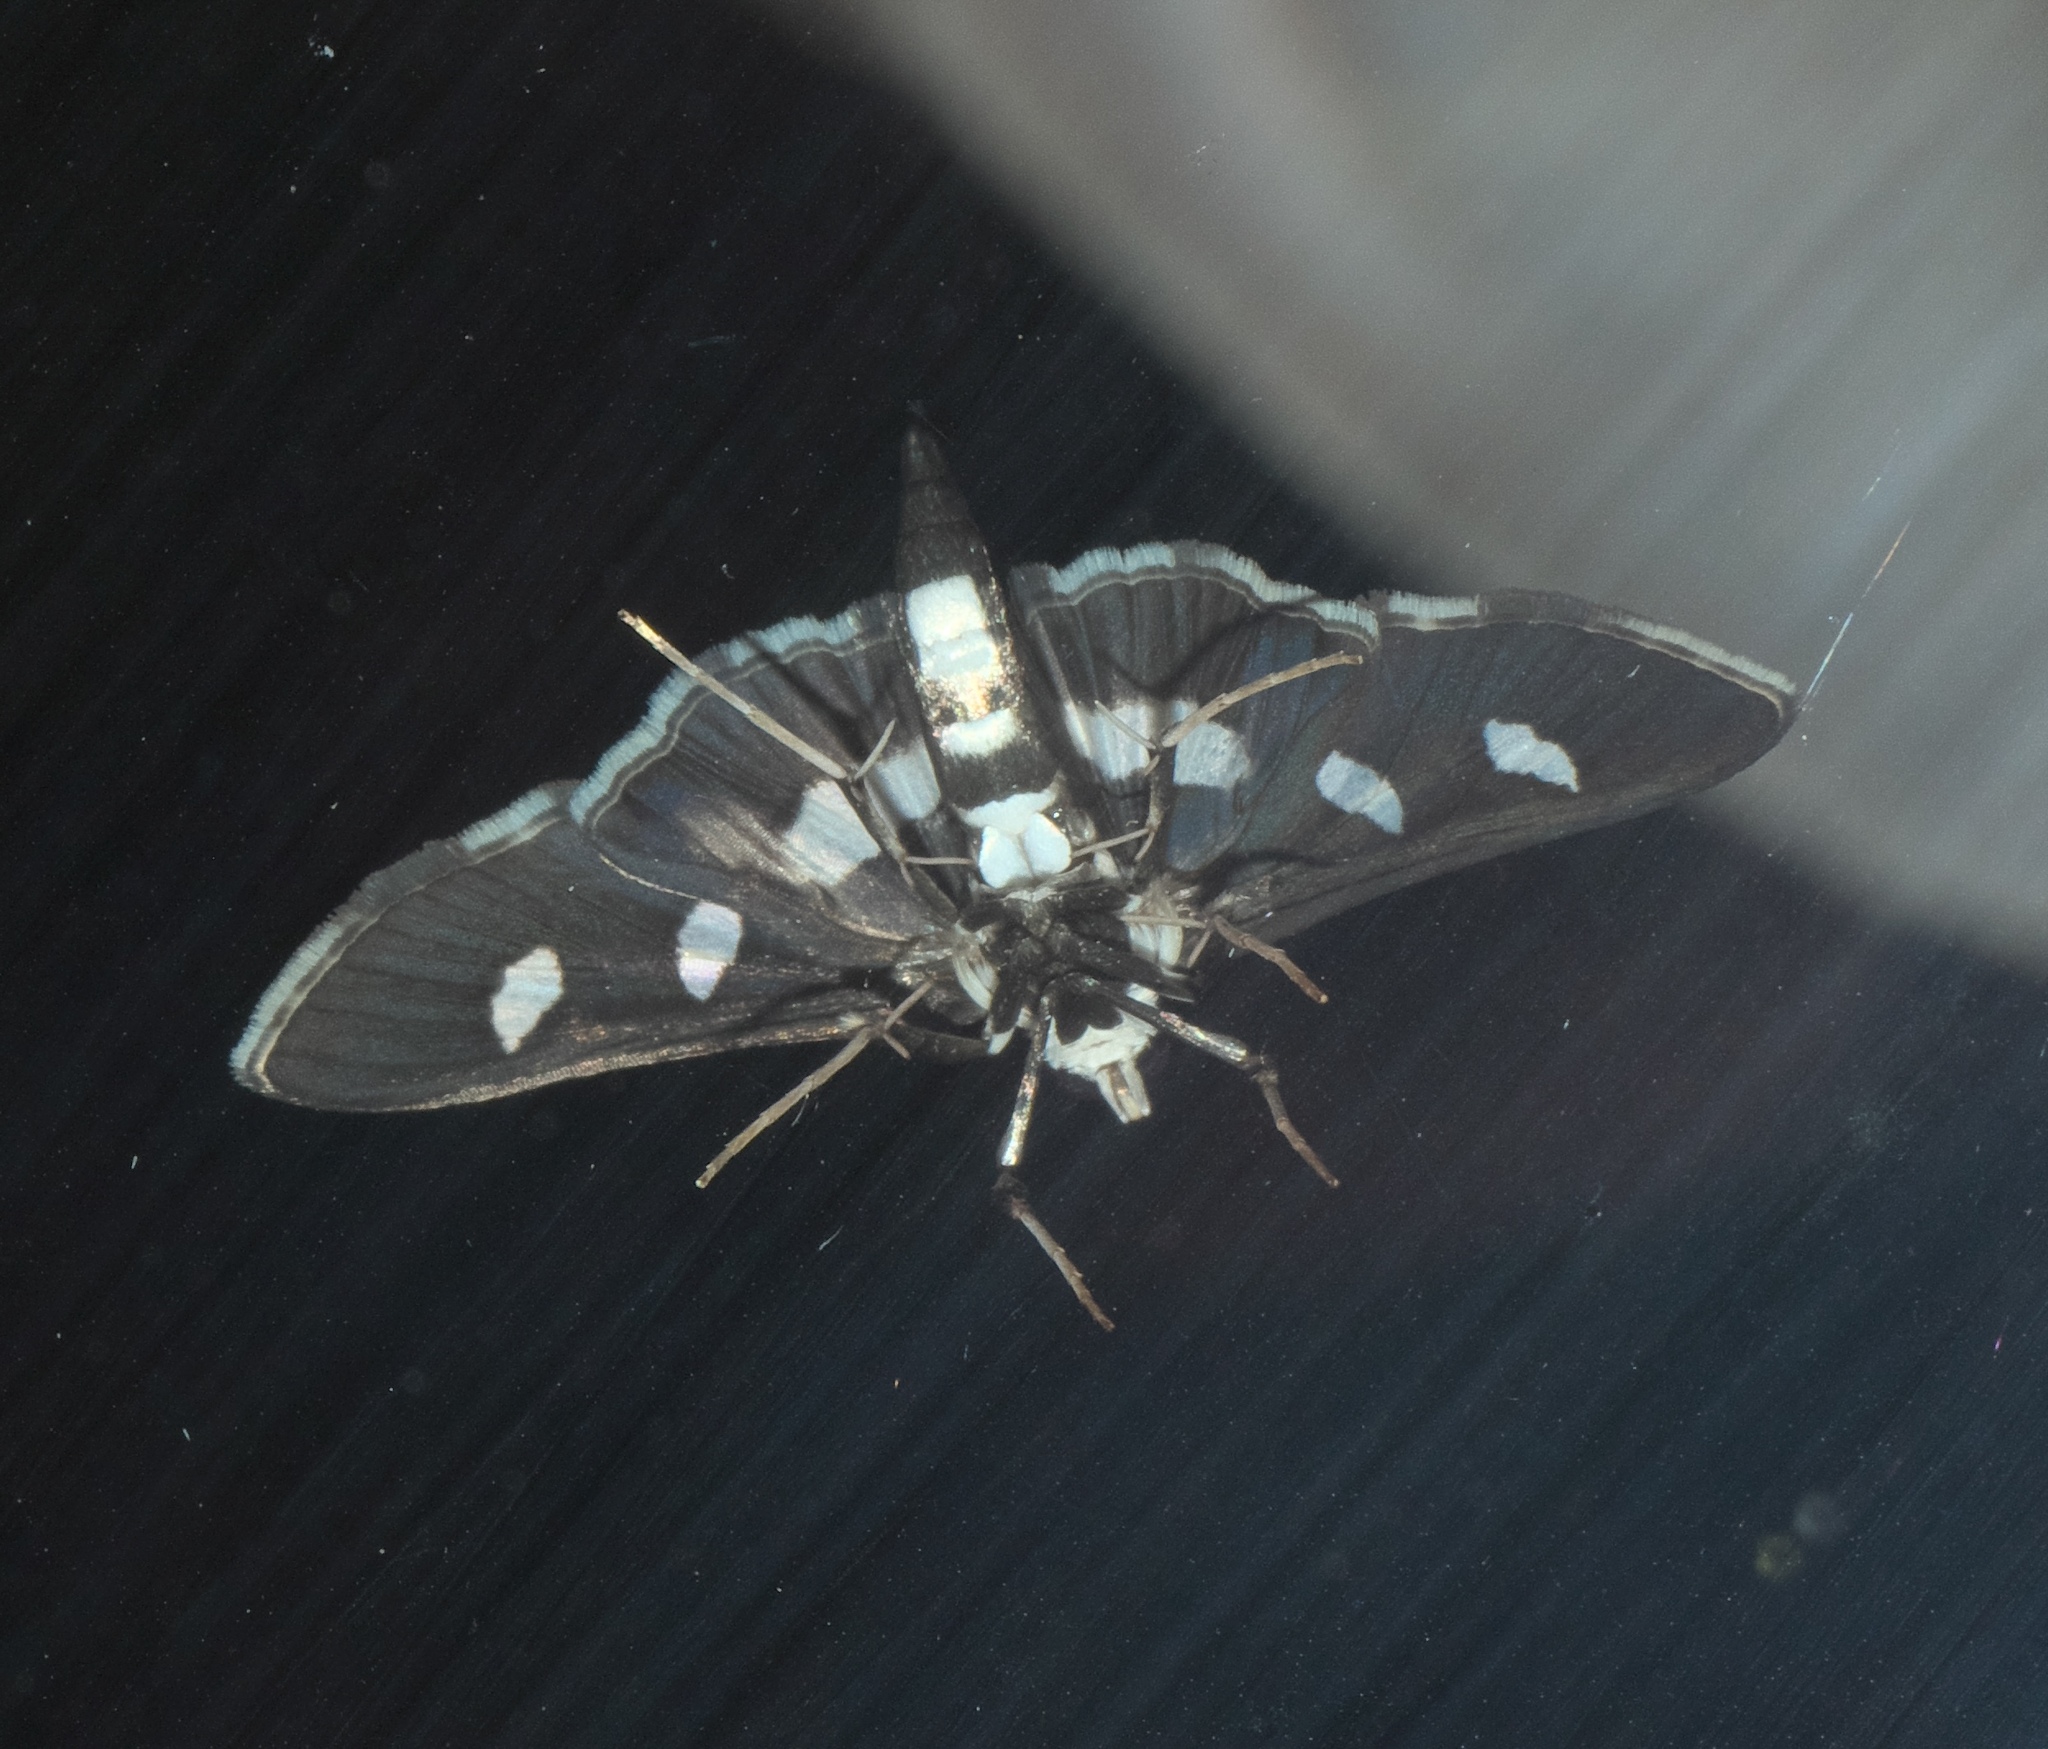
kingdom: Animalia
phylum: Arthropoda
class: Insecta
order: Lepidoptera
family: Crambidae
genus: Desmia
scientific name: Desmia funeralis
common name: Grape leaf folder moth
